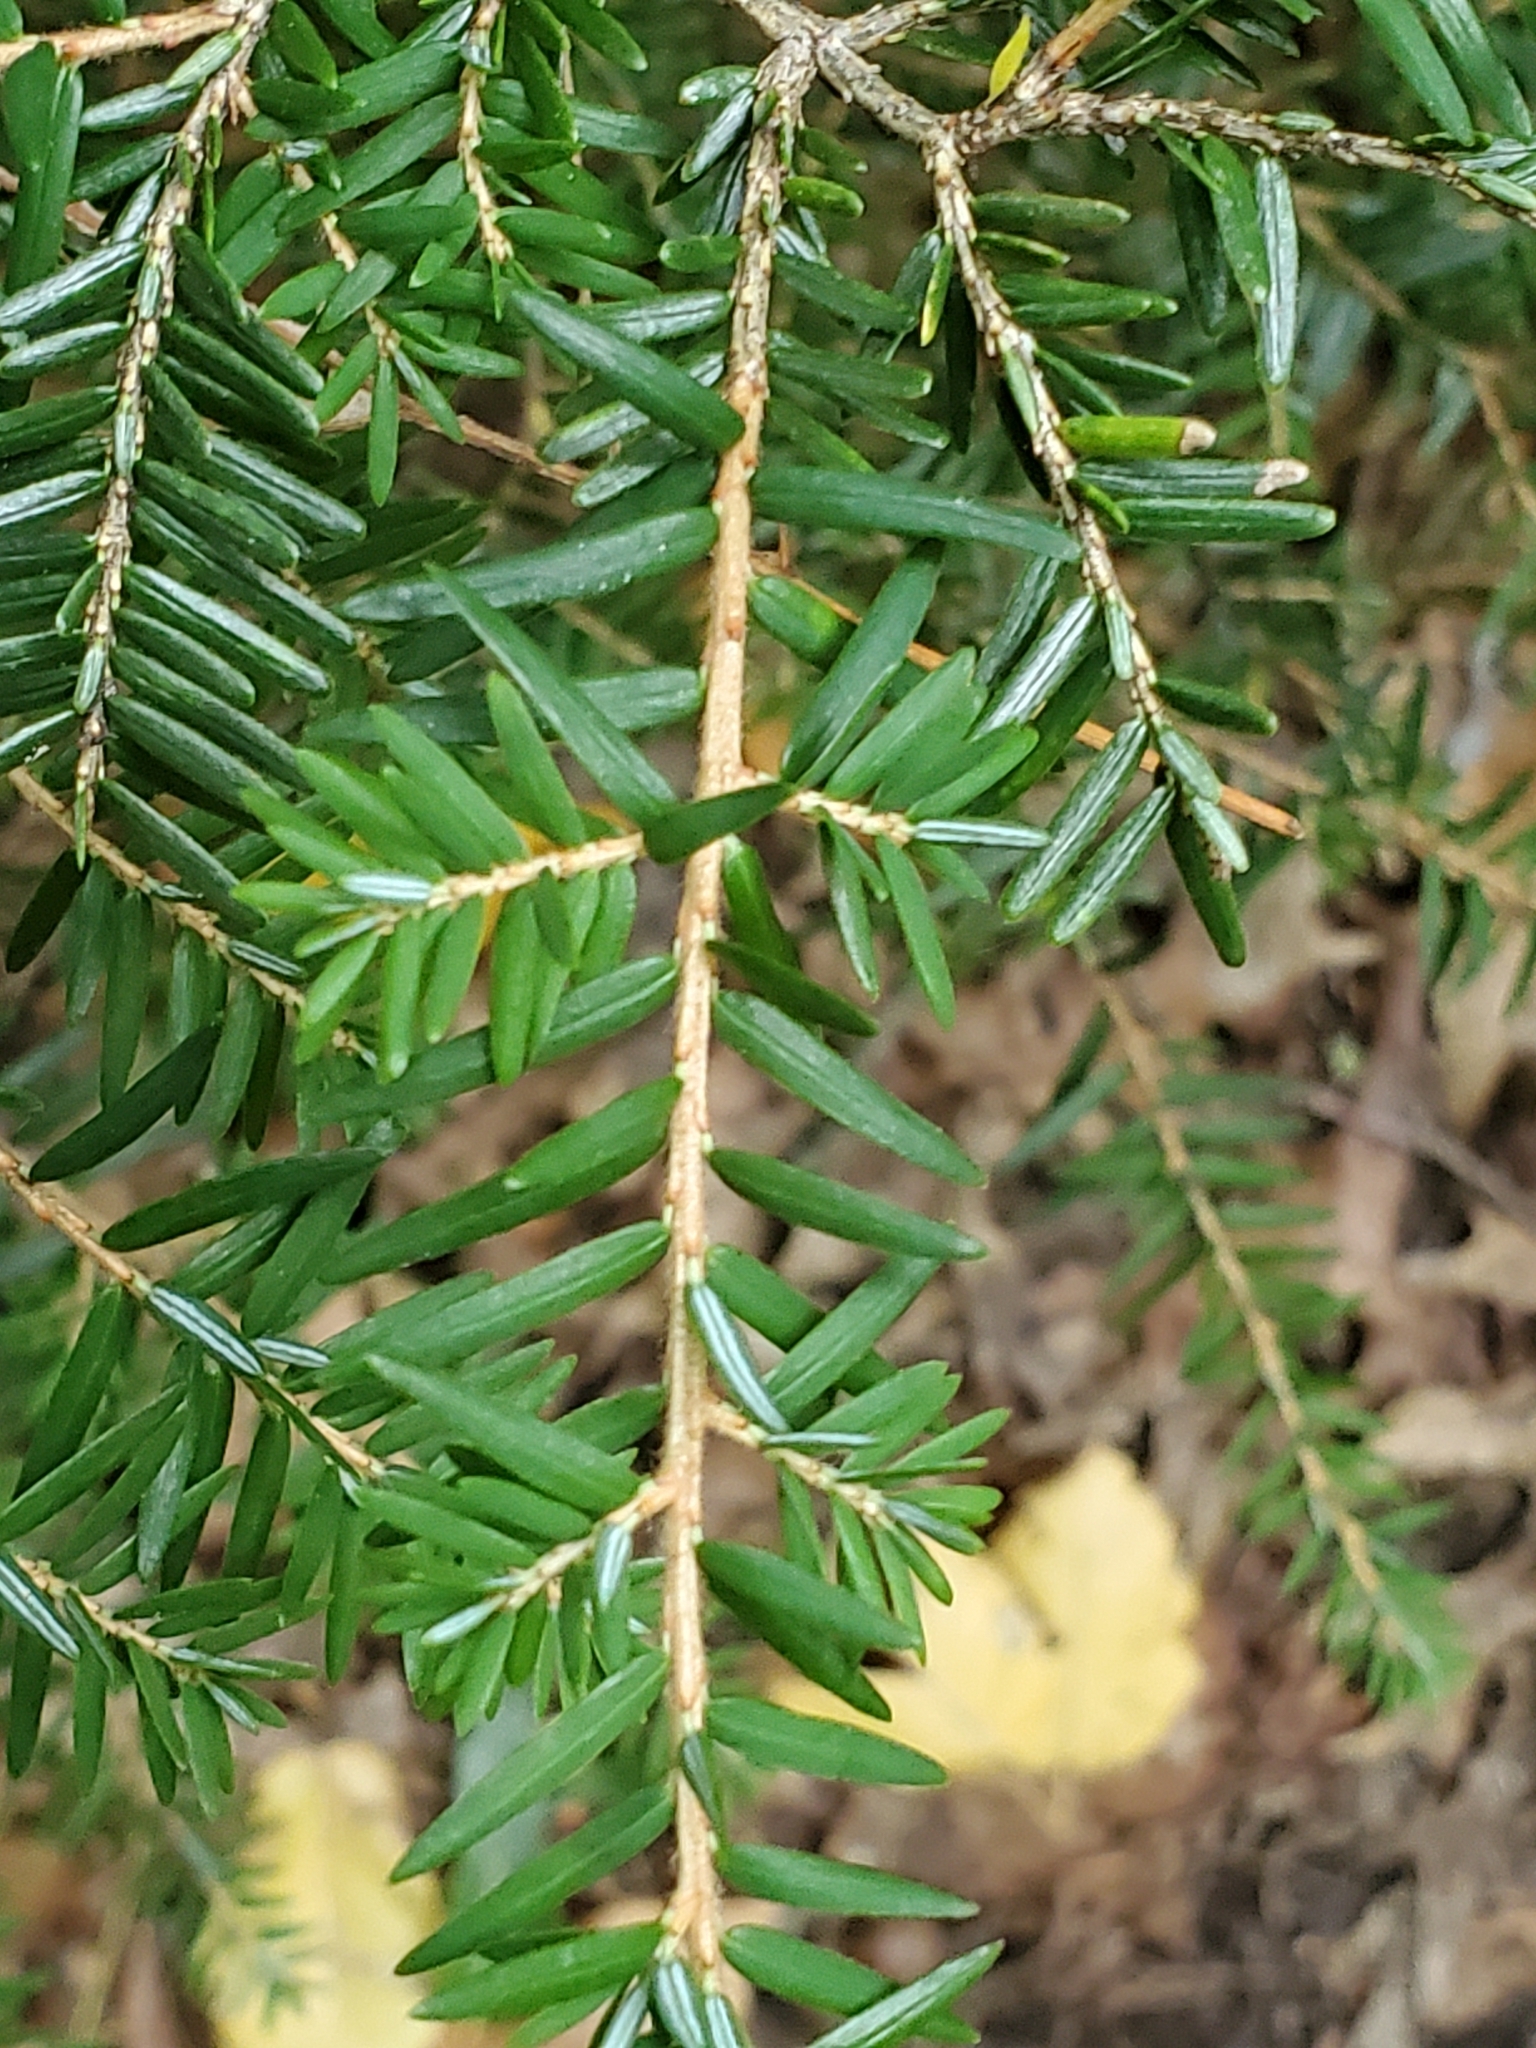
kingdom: Plantae
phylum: Tracheophyta
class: Pinopsida
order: Pinales
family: Pinaceae
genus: Tsuga
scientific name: Tsuga canadensis
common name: Eastern hemlock
